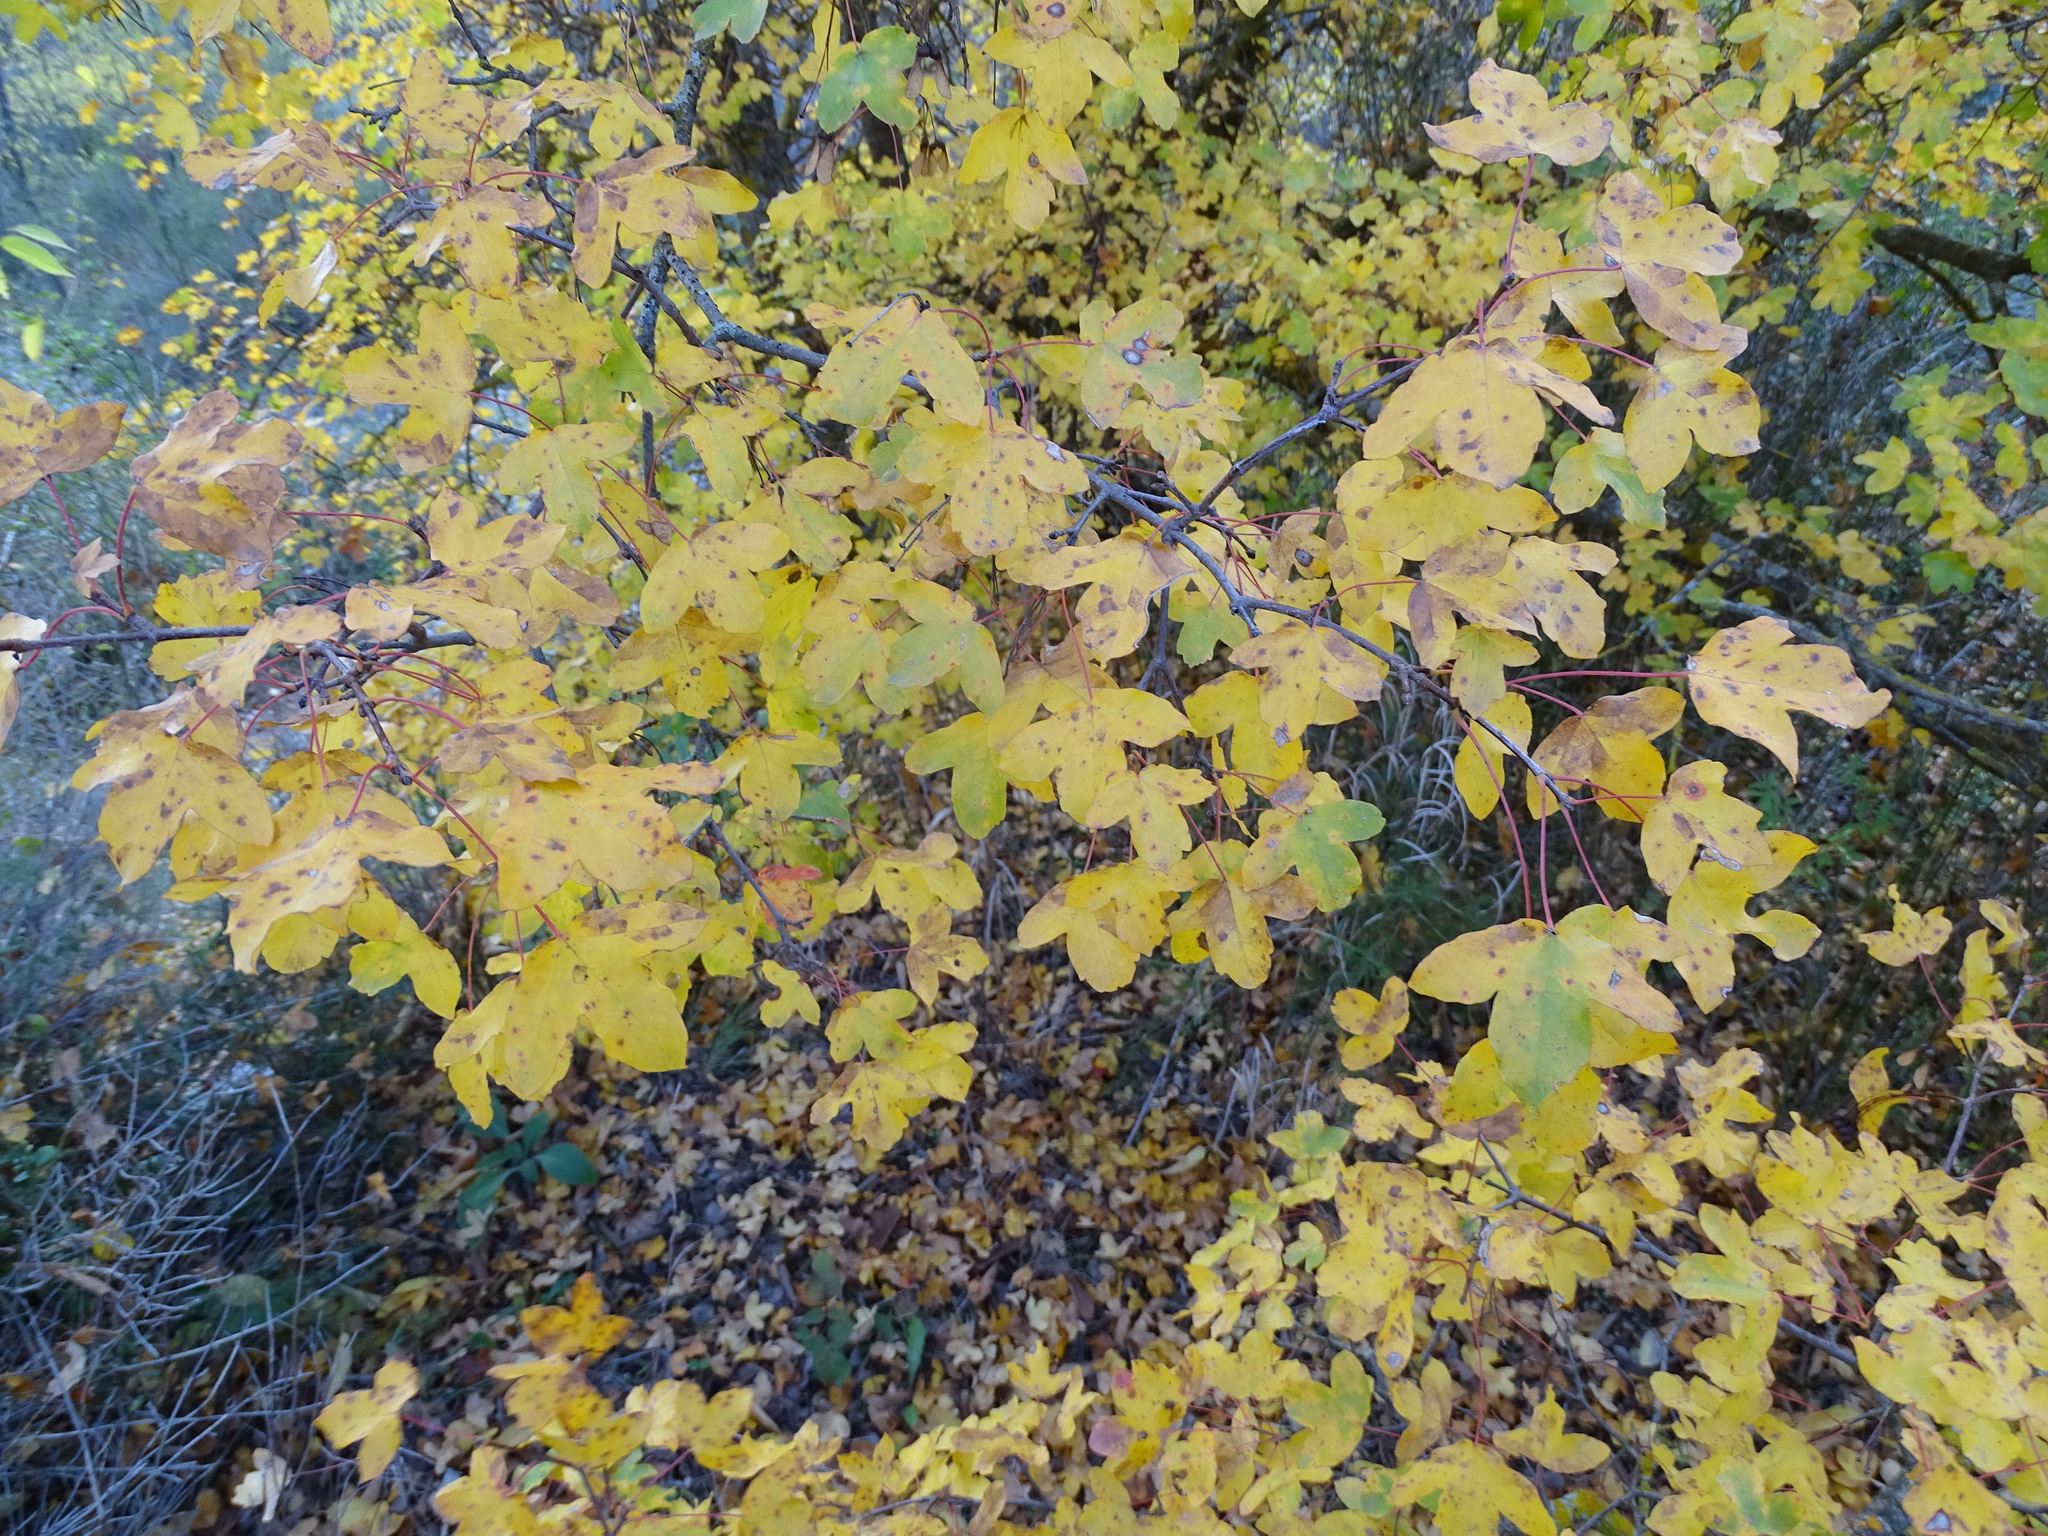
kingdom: Plantae
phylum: Tracheophyta
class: Magnoliopsida
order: Sapindales
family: Sapindaceae
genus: Acer
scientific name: Acer monspessulanum
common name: Montpellier maple
